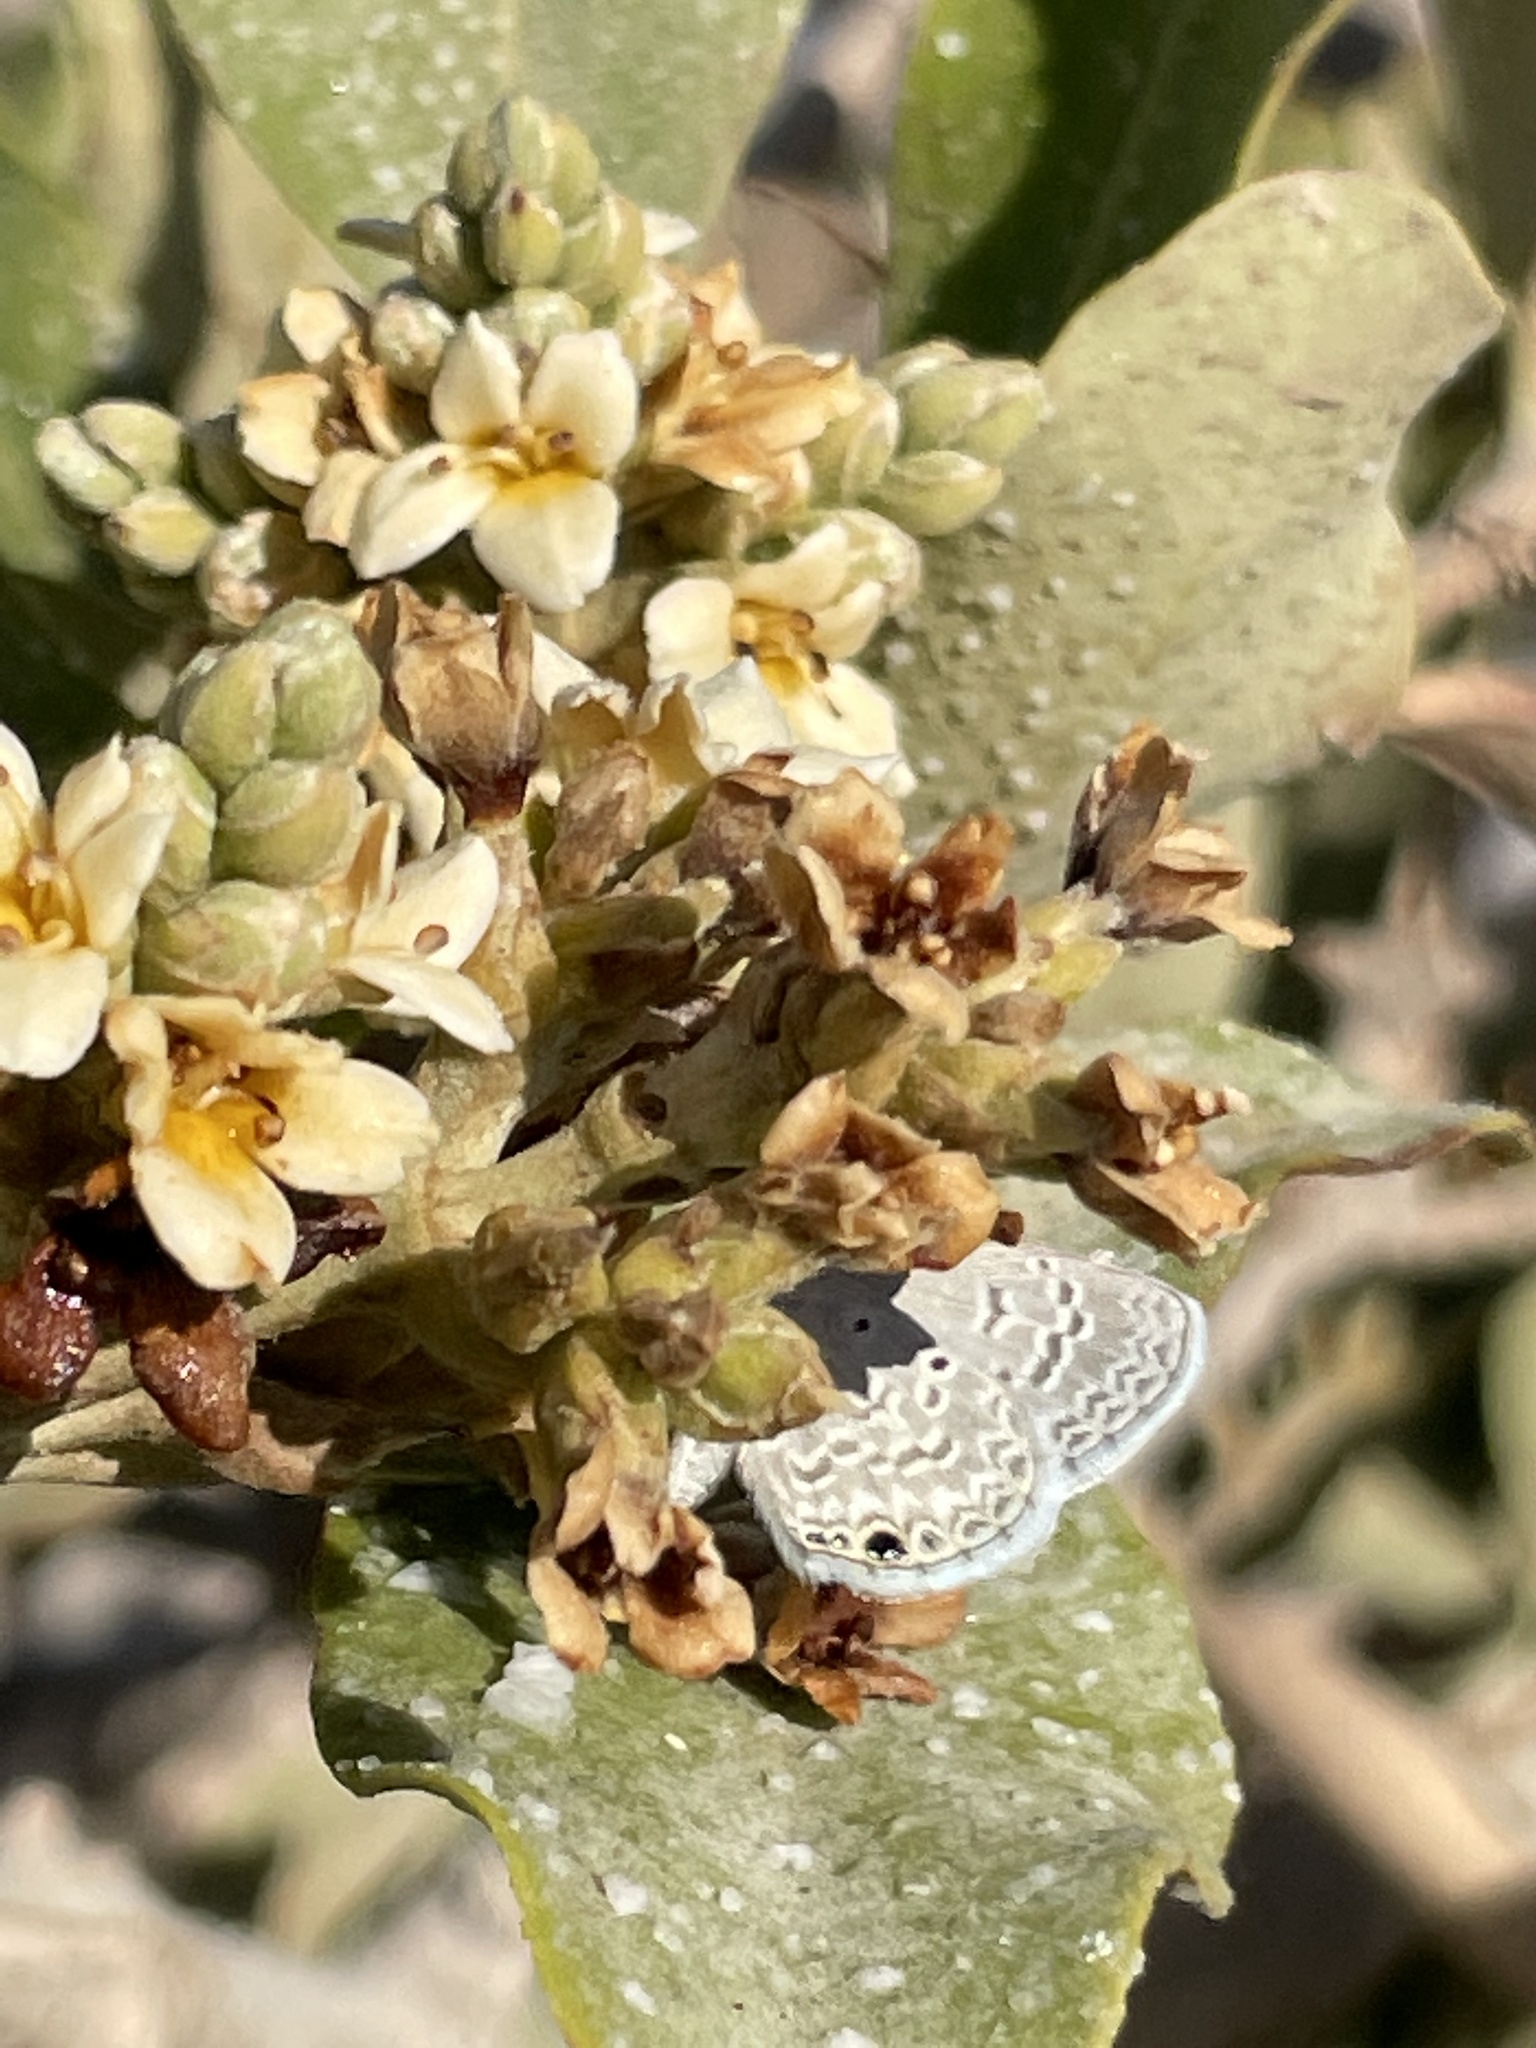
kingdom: Animalia
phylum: Arthropoda
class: Insecta
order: Lepidoptera
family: Lycaenidae
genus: Hemiargus
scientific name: Hemiargus ceraunus
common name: Ceraunus blue
